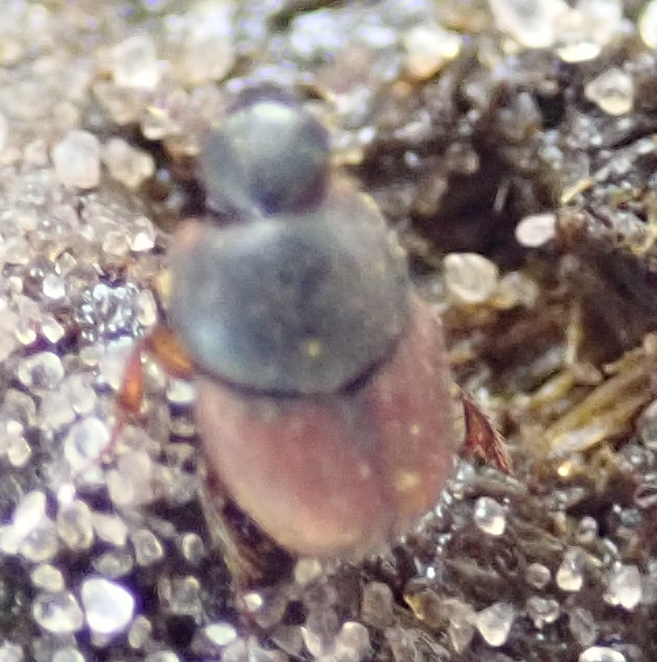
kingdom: Animalia
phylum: Arthropoda
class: Insecta
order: Coleoptera
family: Scarabaeidae
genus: Cleptocaccobius
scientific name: Cleptocaccobius viridicollis
